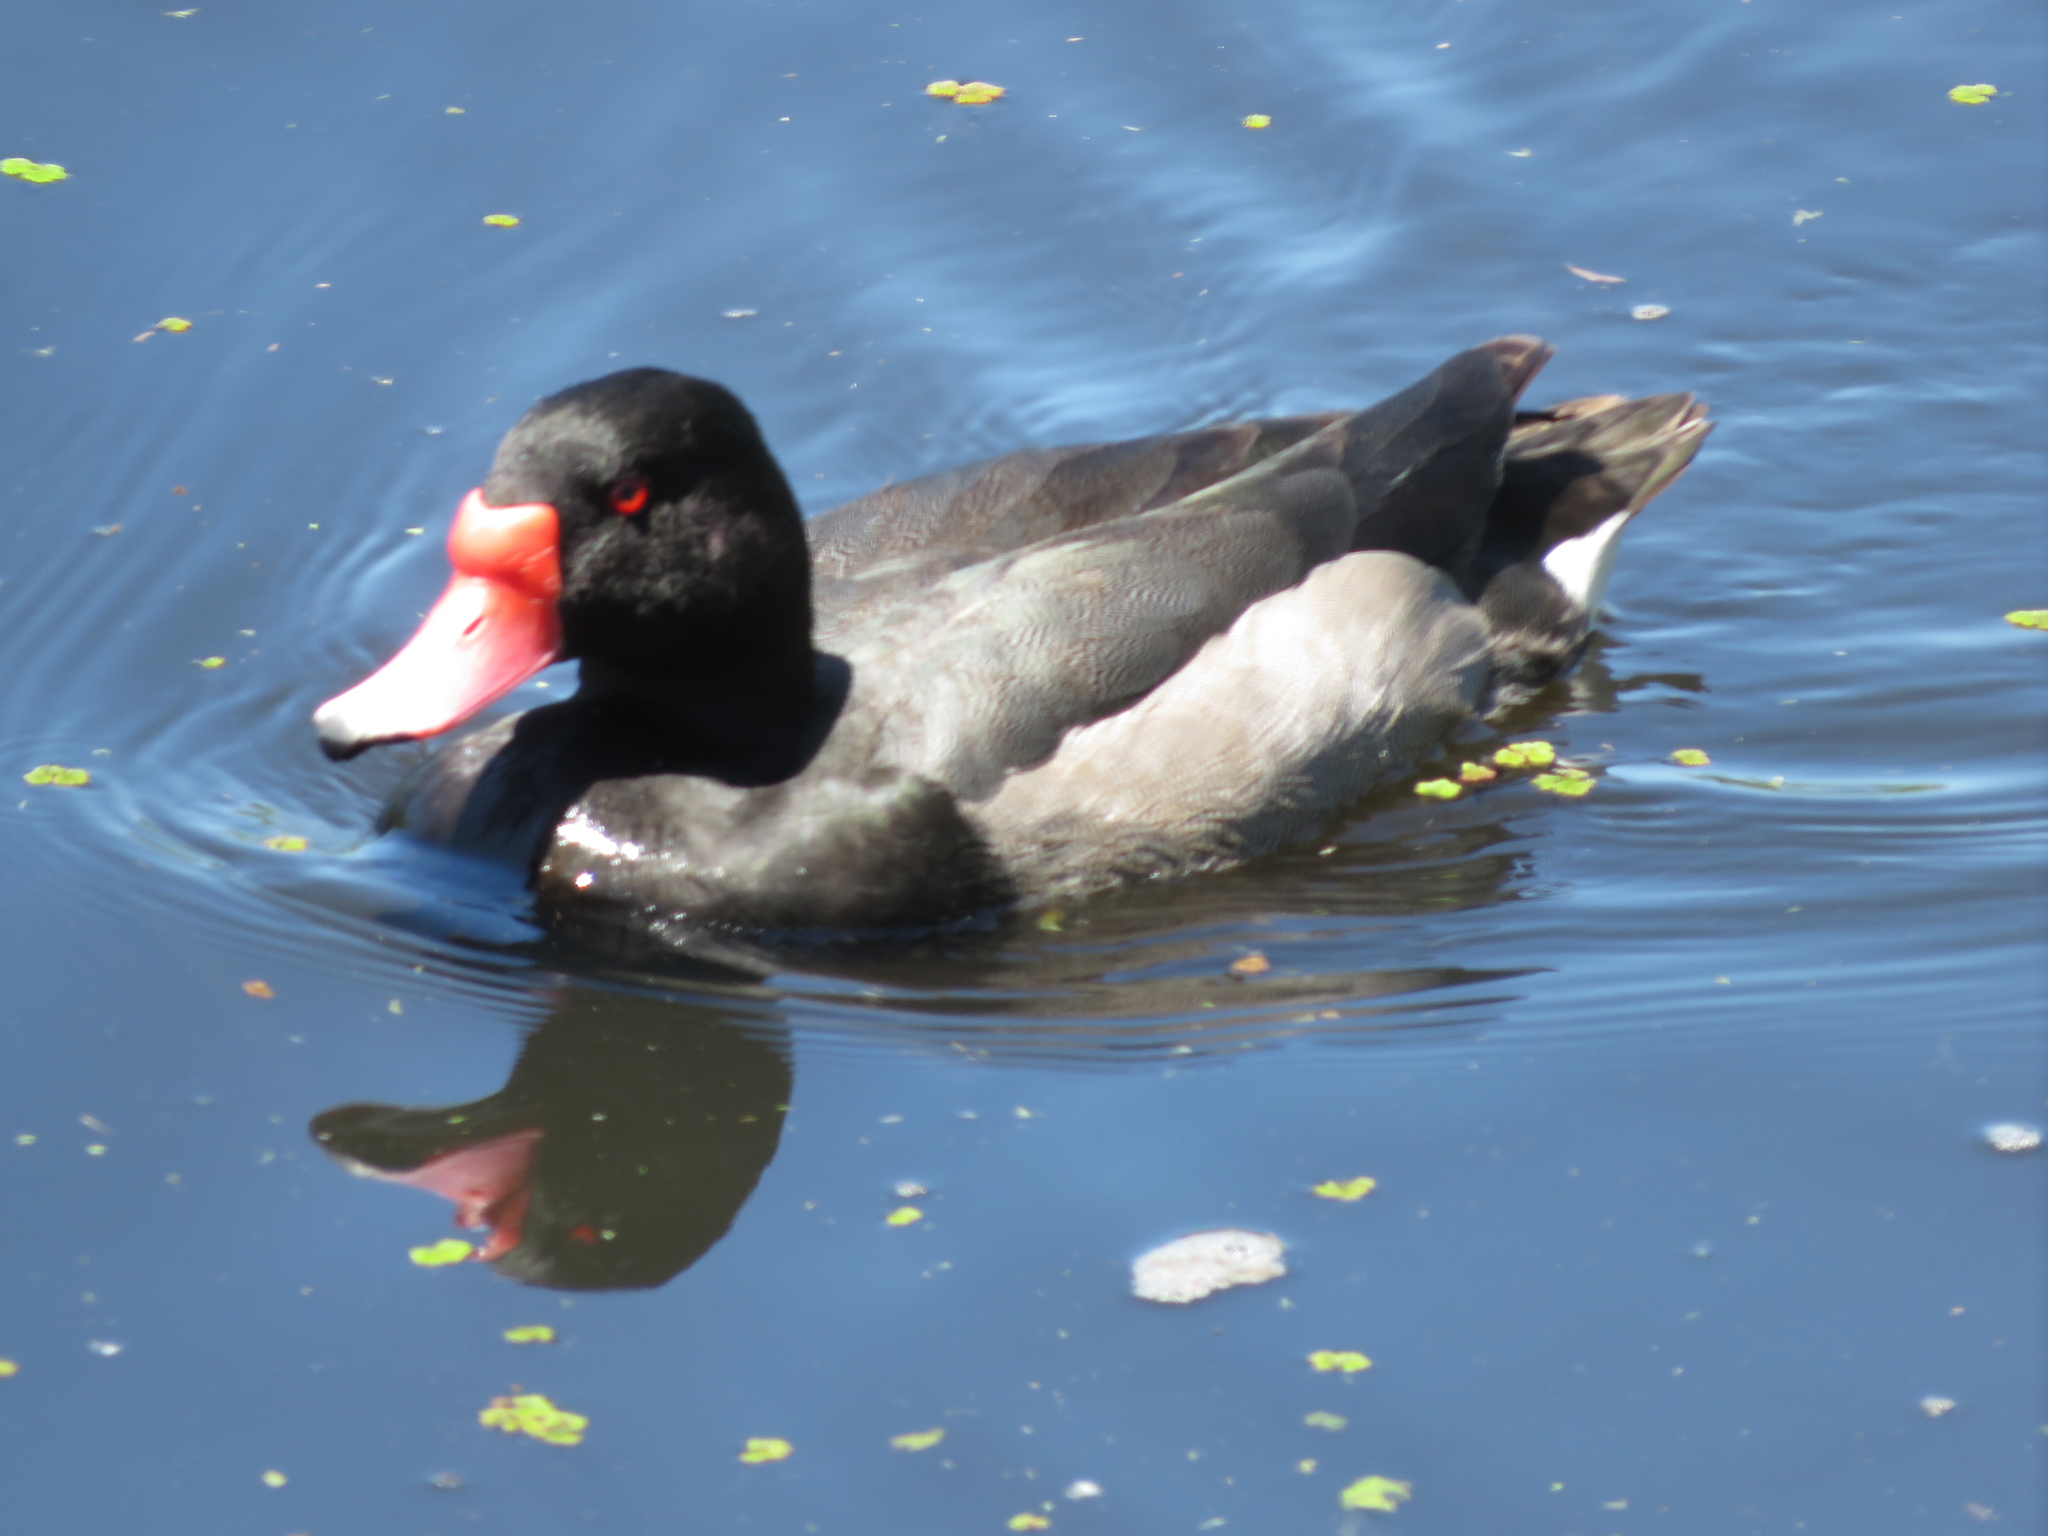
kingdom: Animalia
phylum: Chordata
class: Aves
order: Anseriformes
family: Anatidae
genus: Netta
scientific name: Netta peposaca
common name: Rosy-billed pochard
